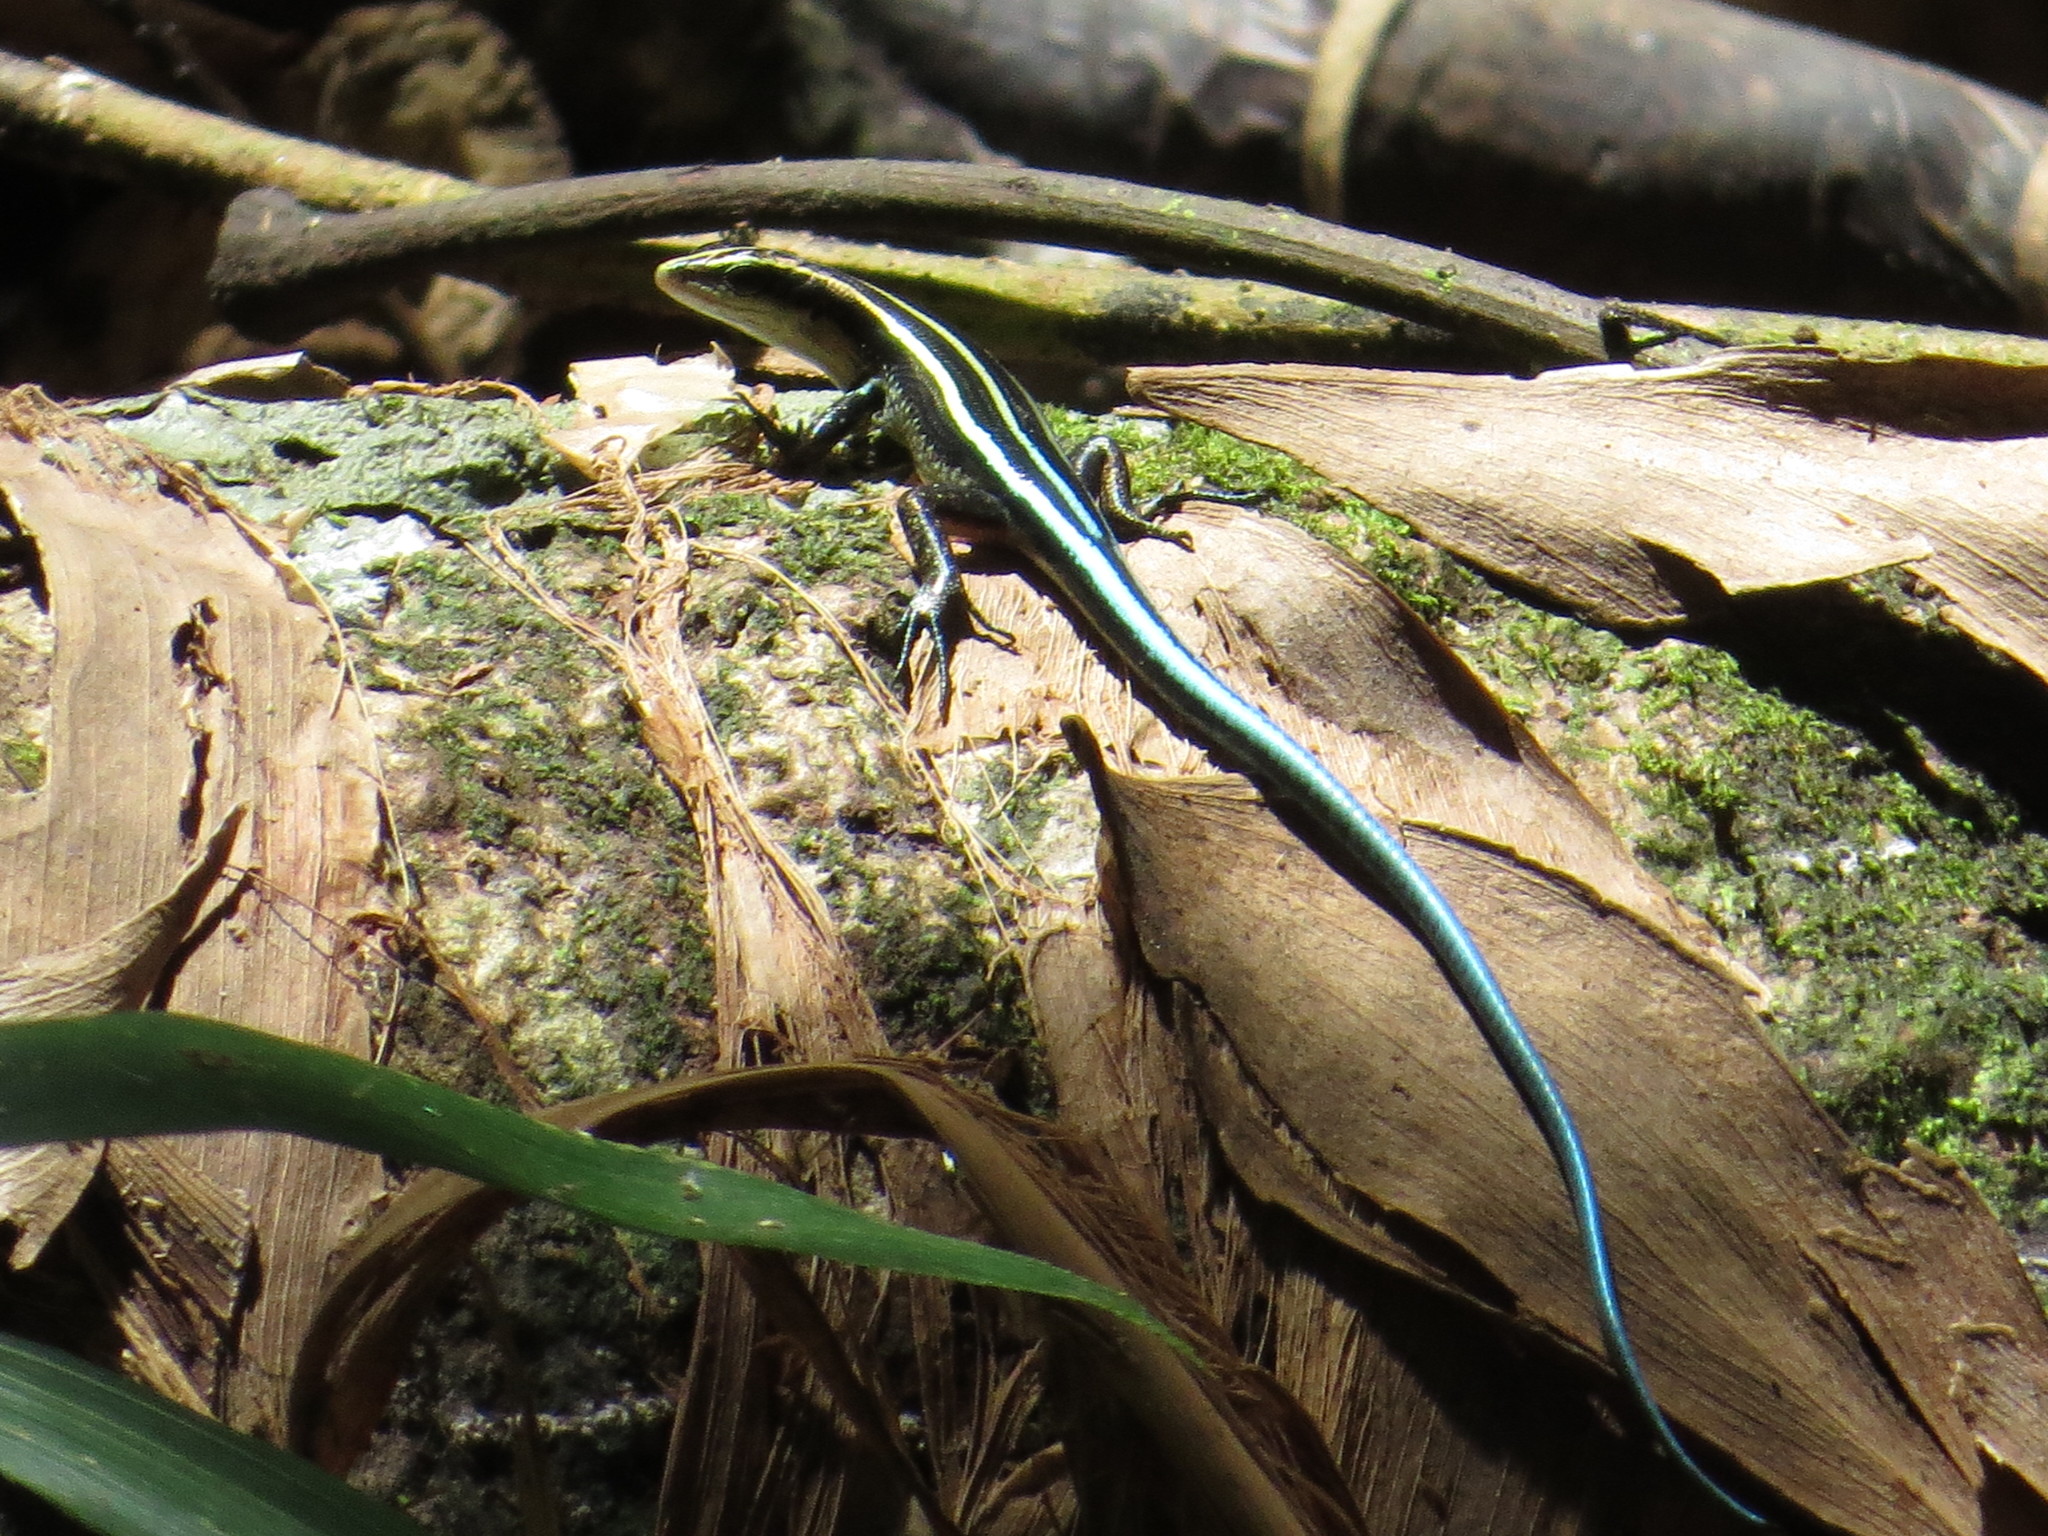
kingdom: Animalia
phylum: Chordata
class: Squamata
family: Scincidae
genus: Emoia
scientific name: Emoia caeruleocauda
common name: Pacific bluetail skink
